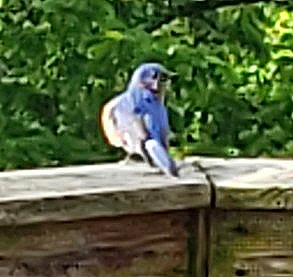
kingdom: Animalia
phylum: Chordata
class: Aves
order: Passeriformes
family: Turdidae
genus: Sialia
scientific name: Sialia sialis
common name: Eastern bluebird
